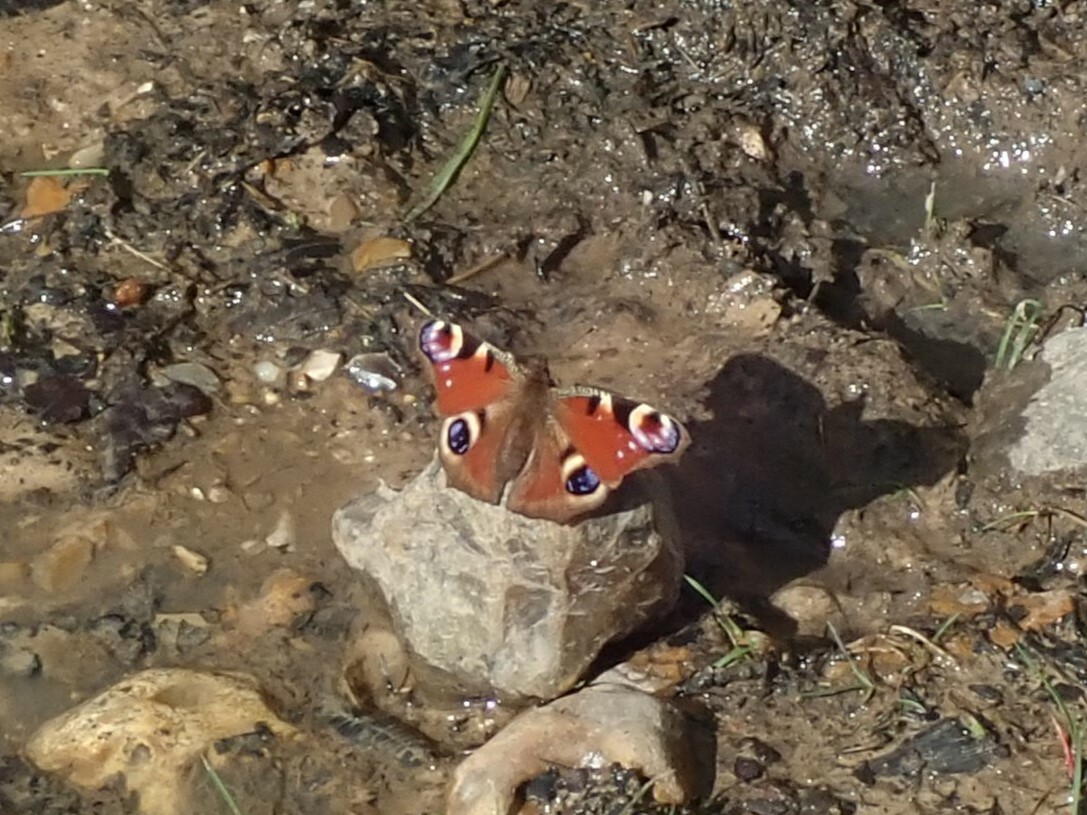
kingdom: Animalia
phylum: Arthropoda
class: Insecta
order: Lepidoptera
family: Nymphalidae
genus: Aglais
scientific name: Aglais io
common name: Peacock
